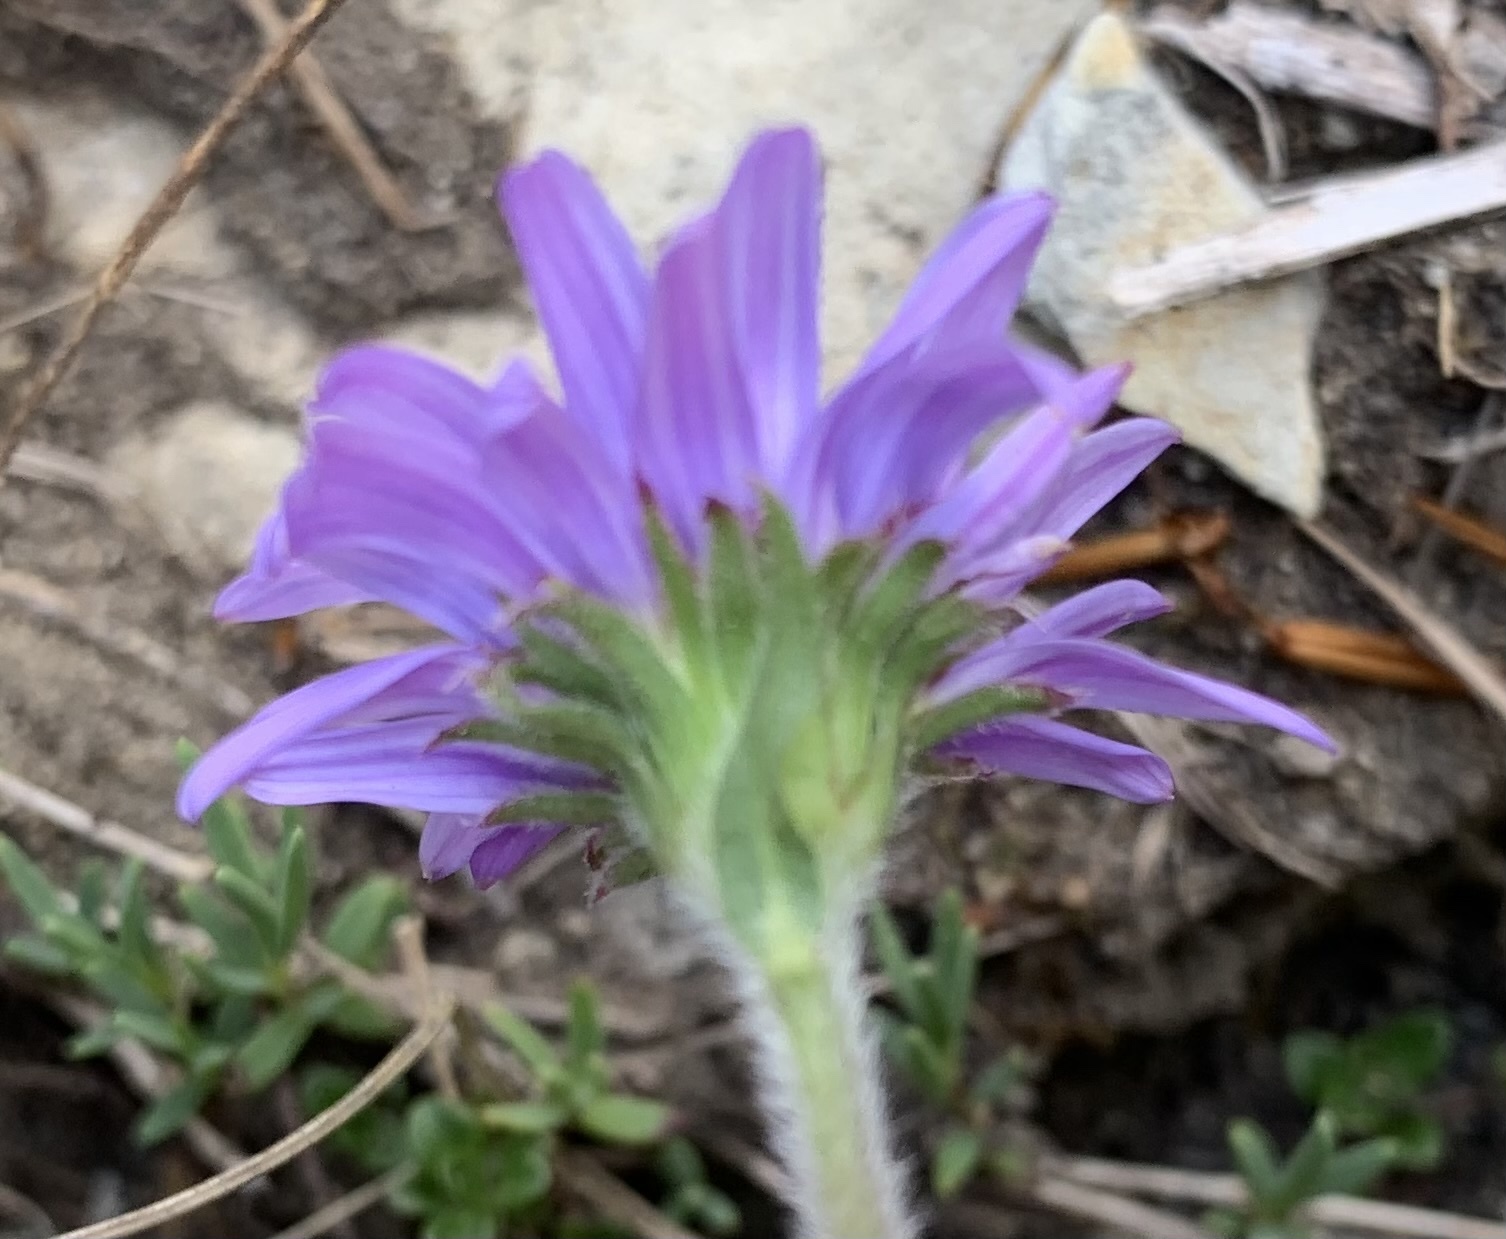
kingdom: Plantae
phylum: Tracheophyta
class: Magnoliopsida
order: Asterales
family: Asteraceae
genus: Aster
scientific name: Aster alpinus
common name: Alpine aster
